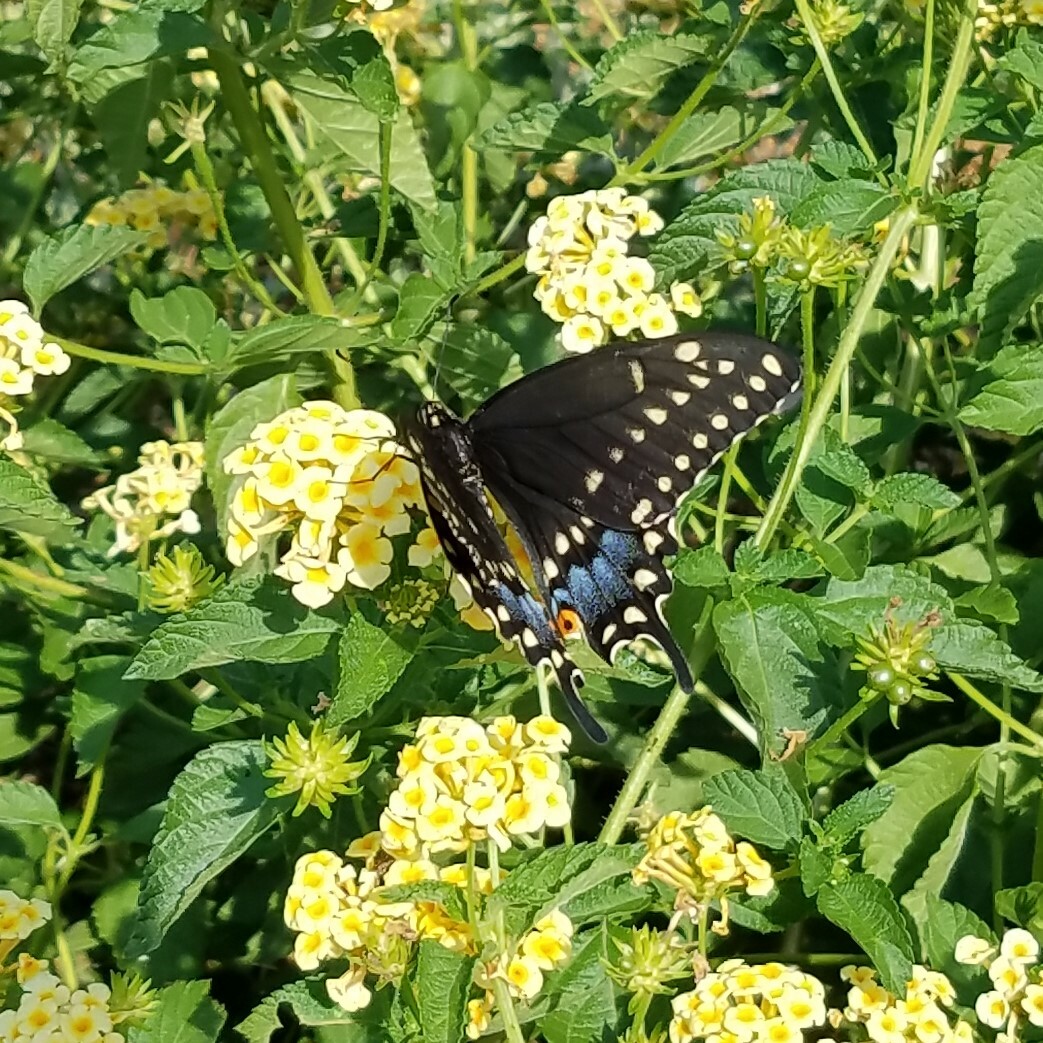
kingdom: Animalia
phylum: Arthropoda
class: Insecta
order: Lepidoptera
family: Papilionidae
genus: Papilio
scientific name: Papilio polyxenes
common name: Black swallowtail
